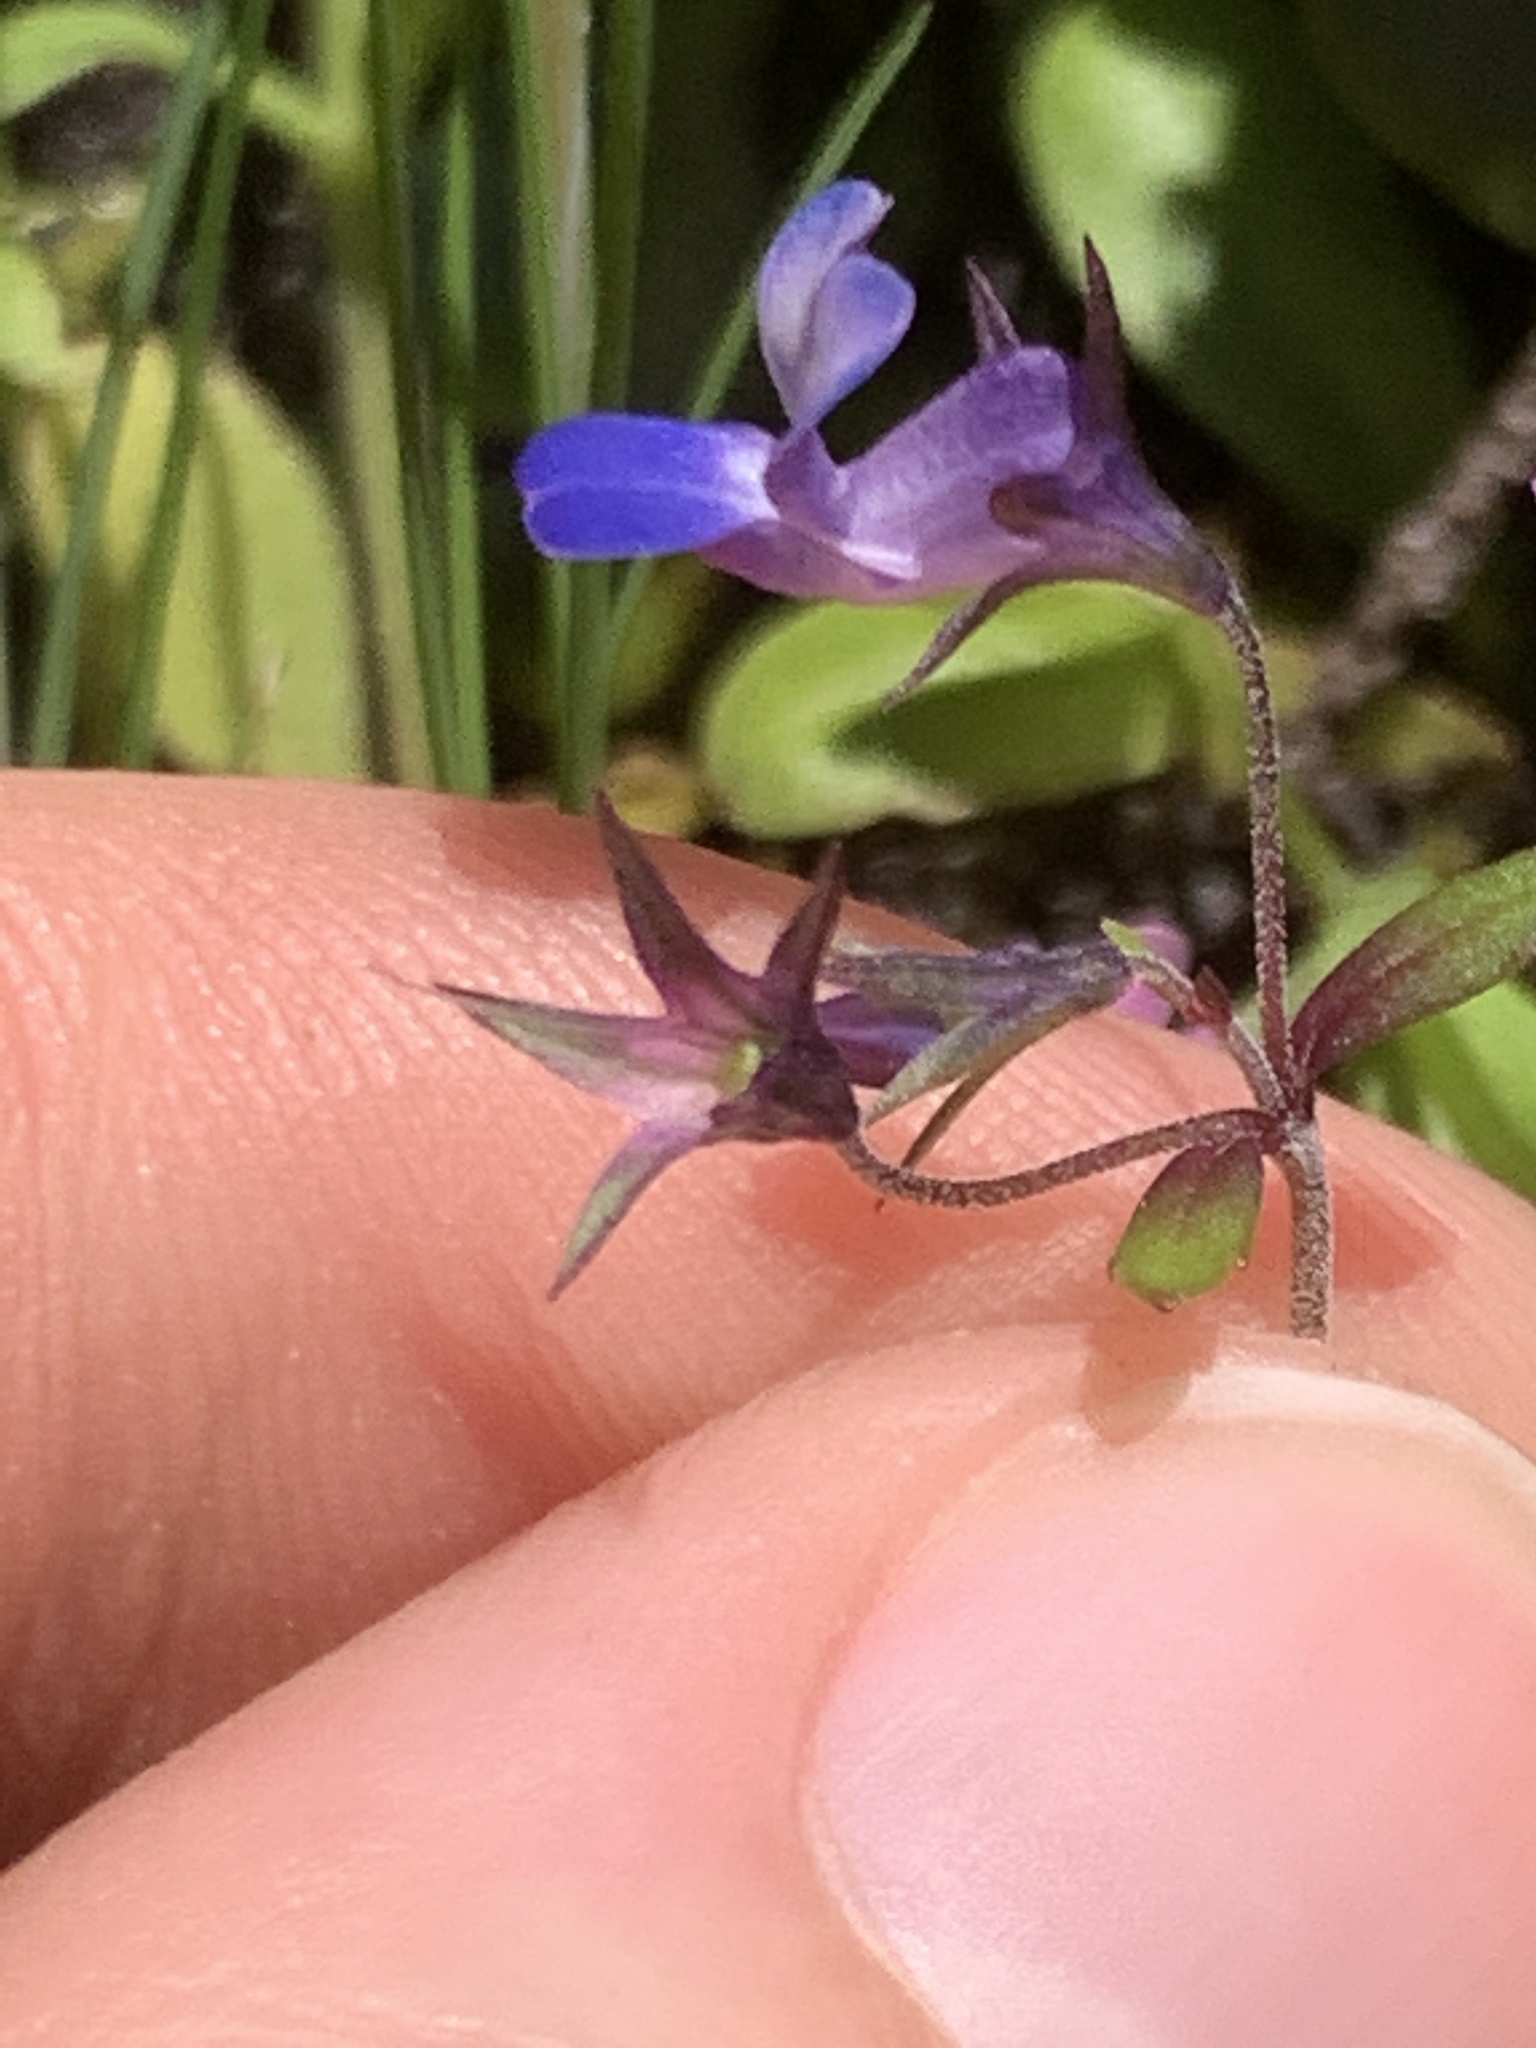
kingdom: Plantae
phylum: Tracheophyta
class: Magnoliopsida
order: Lamiales
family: Plantaginaceae
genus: Collinsia
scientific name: Collinsia parviflora
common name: Blue-lips
